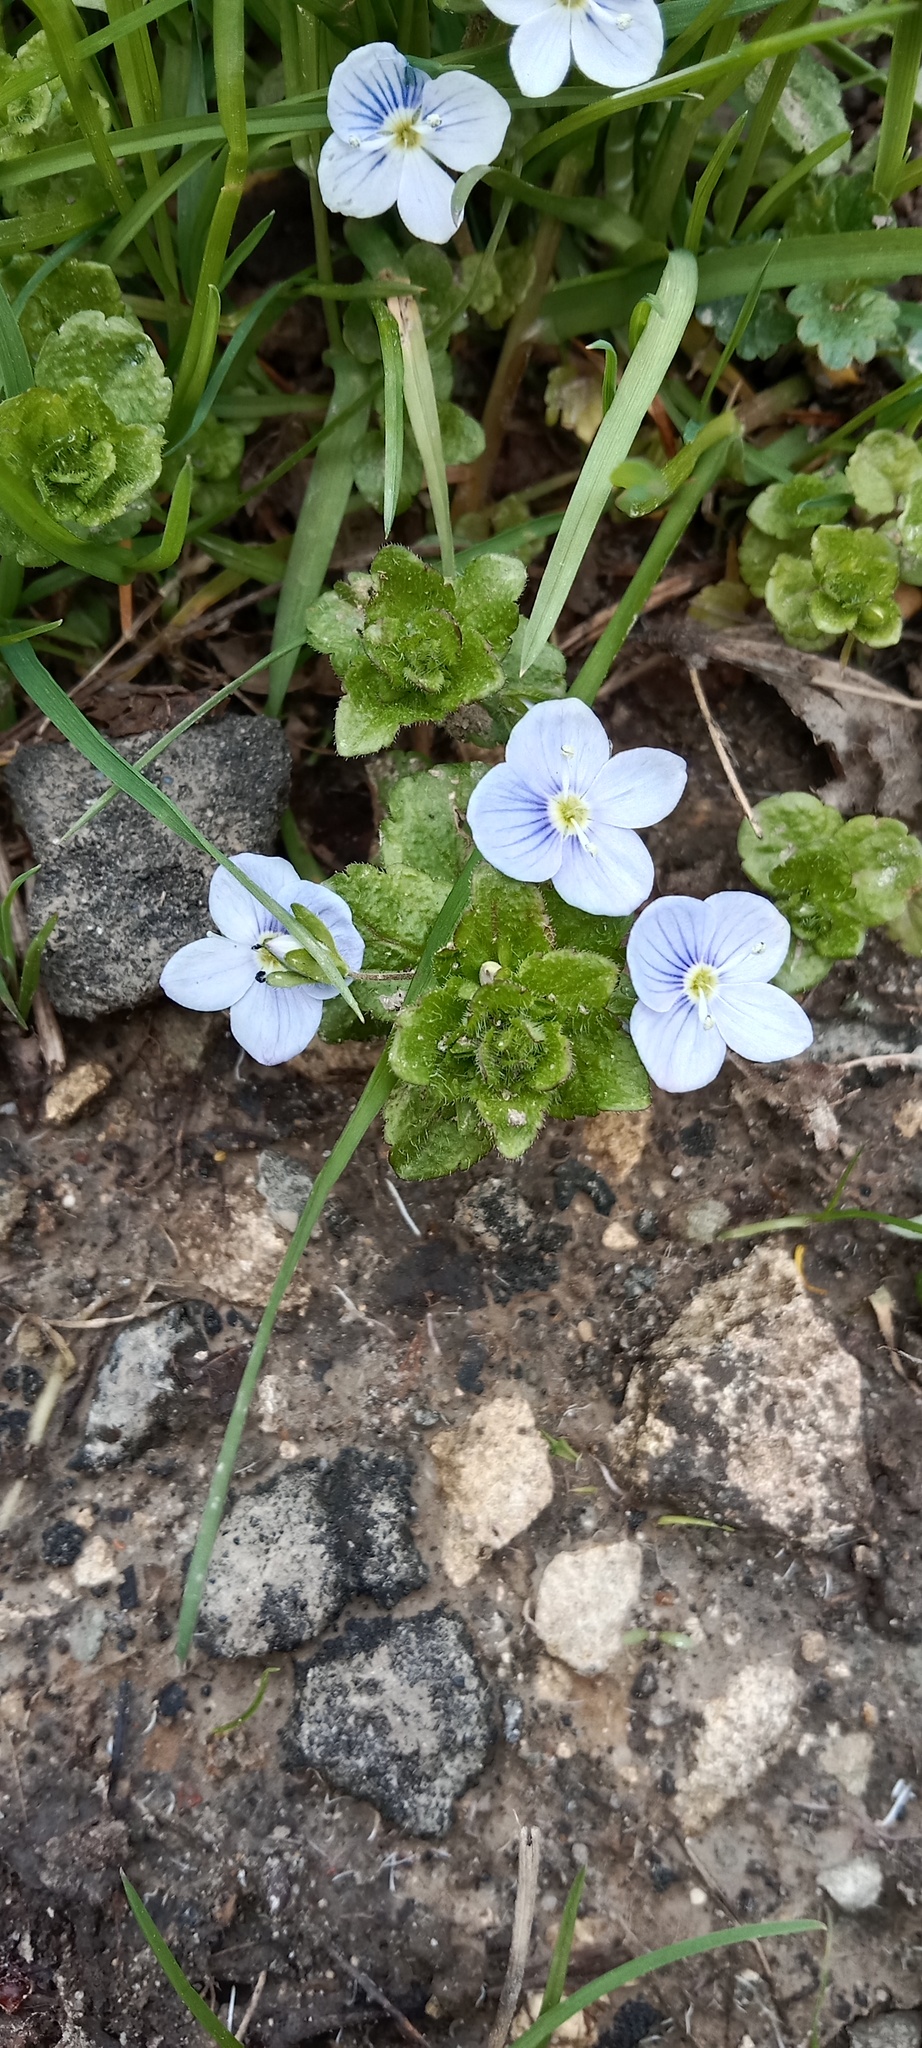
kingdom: Plantae
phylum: Tracheophyta
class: Magnoliopsida
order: Lamiales
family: Plantaginaceae
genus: Veronica
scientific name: Veronica filiformis
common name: Slender speedwell
